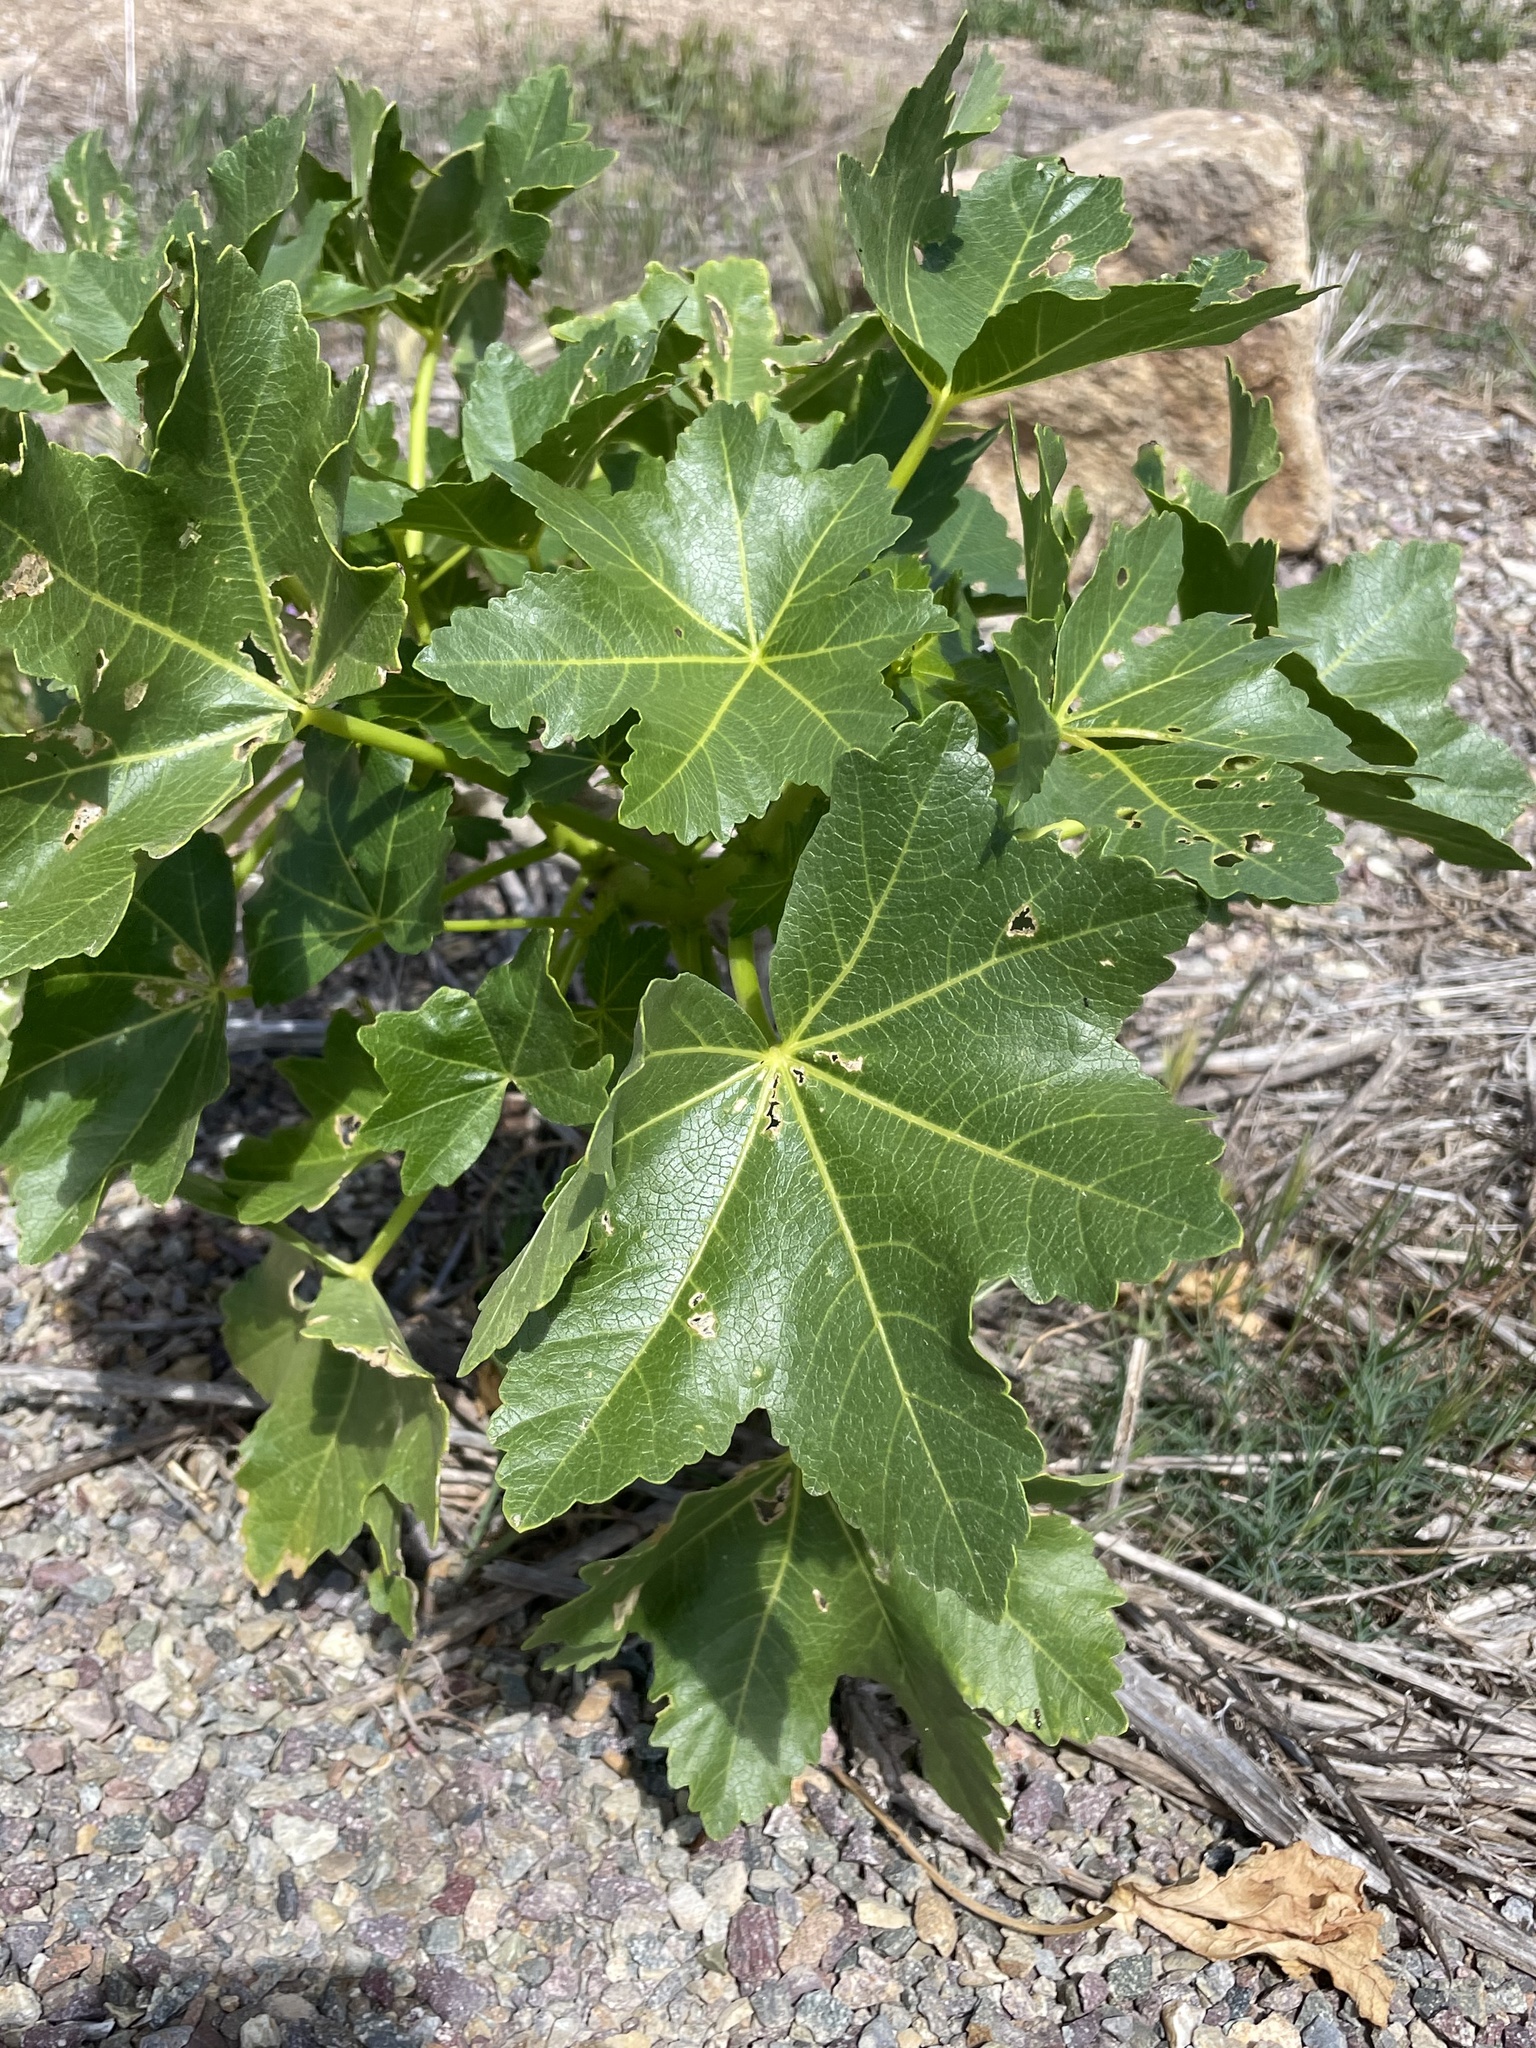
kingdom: Plantae
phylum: Tracheophyta
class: Magnoliopsida
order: Malvales
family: Malvaceae
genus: Malva
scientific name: Malva assurgentiflora
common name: Island mallow
